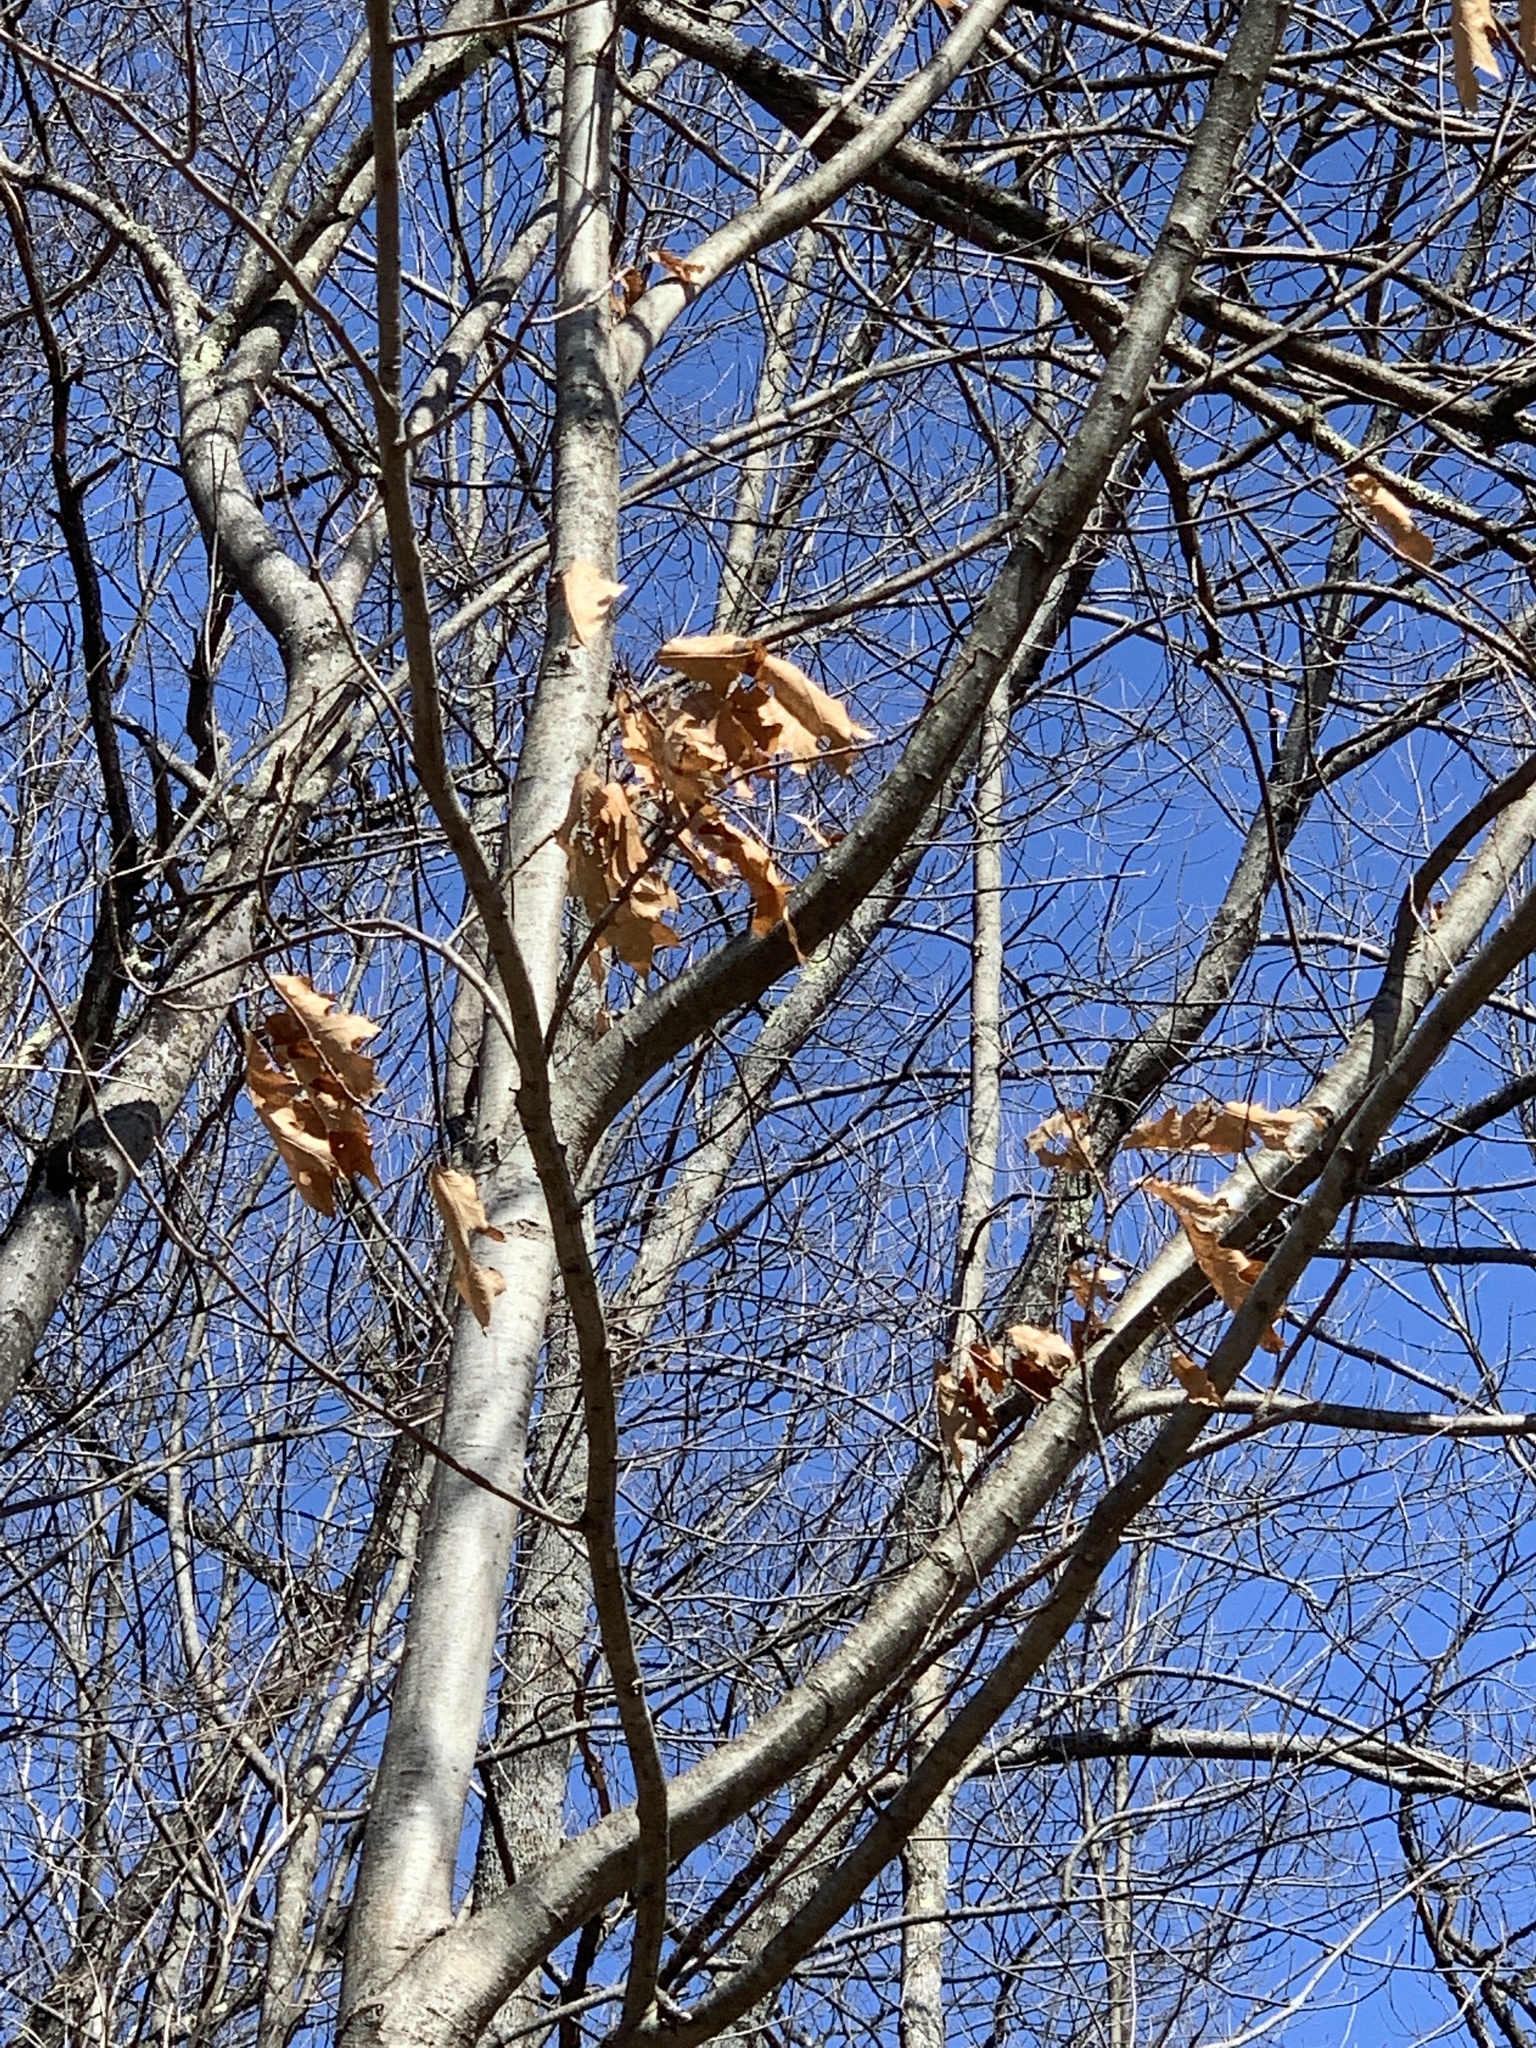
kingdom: Plantae
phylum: Tracheophyta
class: Magnoliopsida
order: Fagales
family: Fagaceae
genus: Quercus
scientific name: Quercus rubra
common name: Red oak
